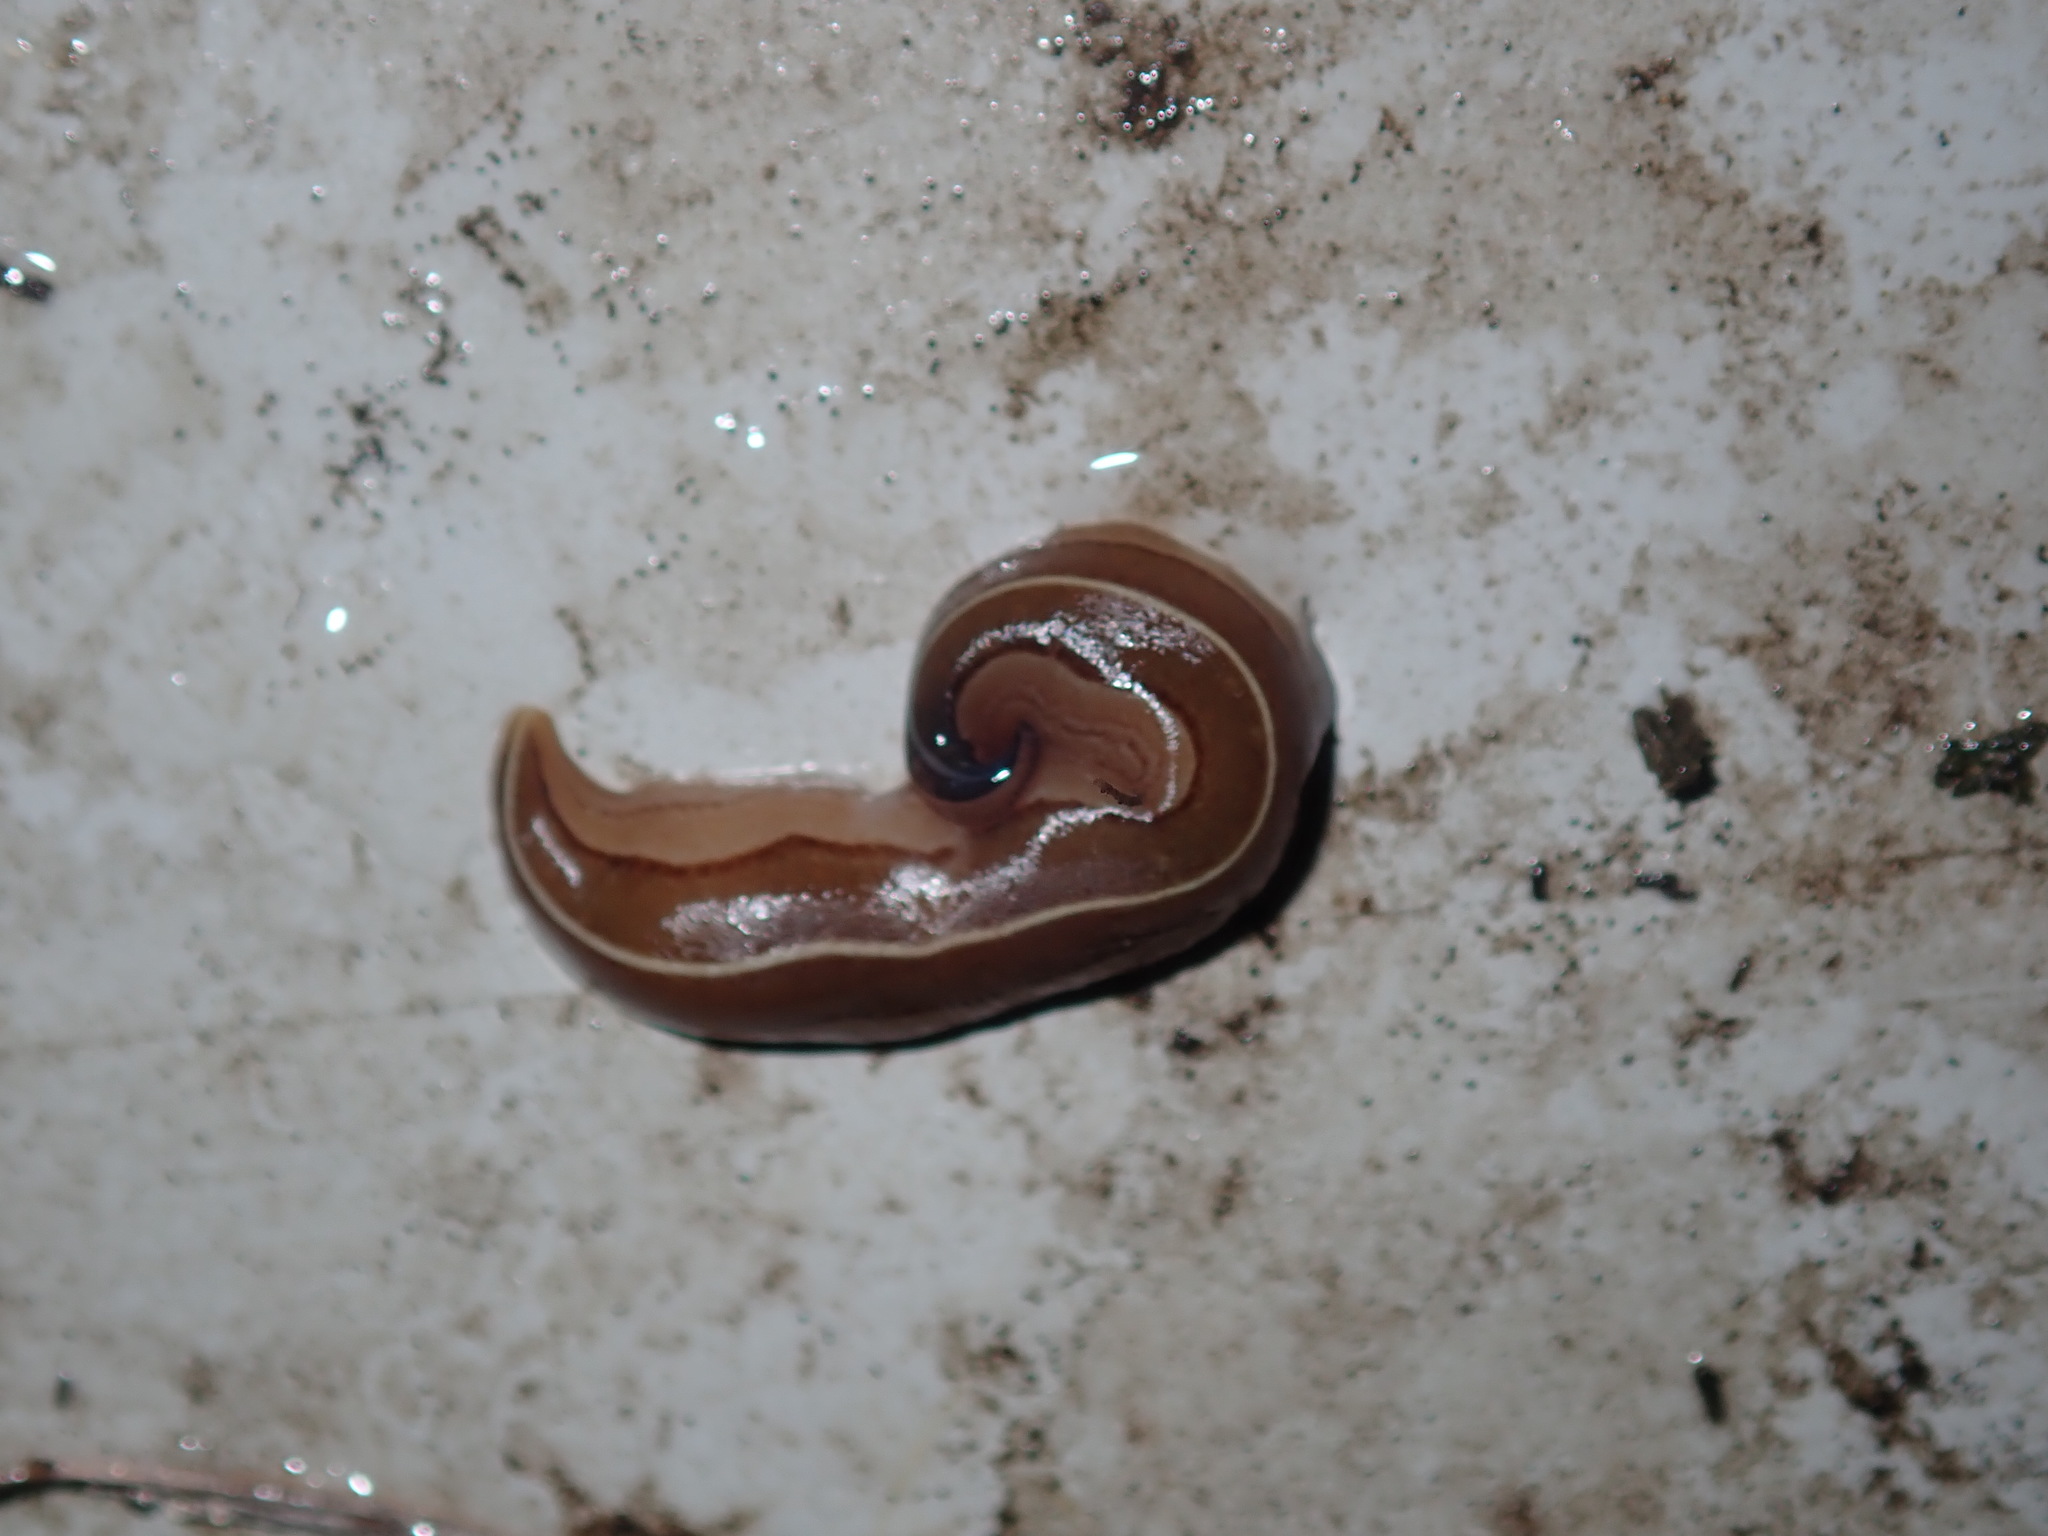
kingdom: Animalia
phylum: Platyhelminthes
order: Tricladida
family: Geoplanidae
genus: Australopacifica
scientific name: Australopacifica scaphoidea
